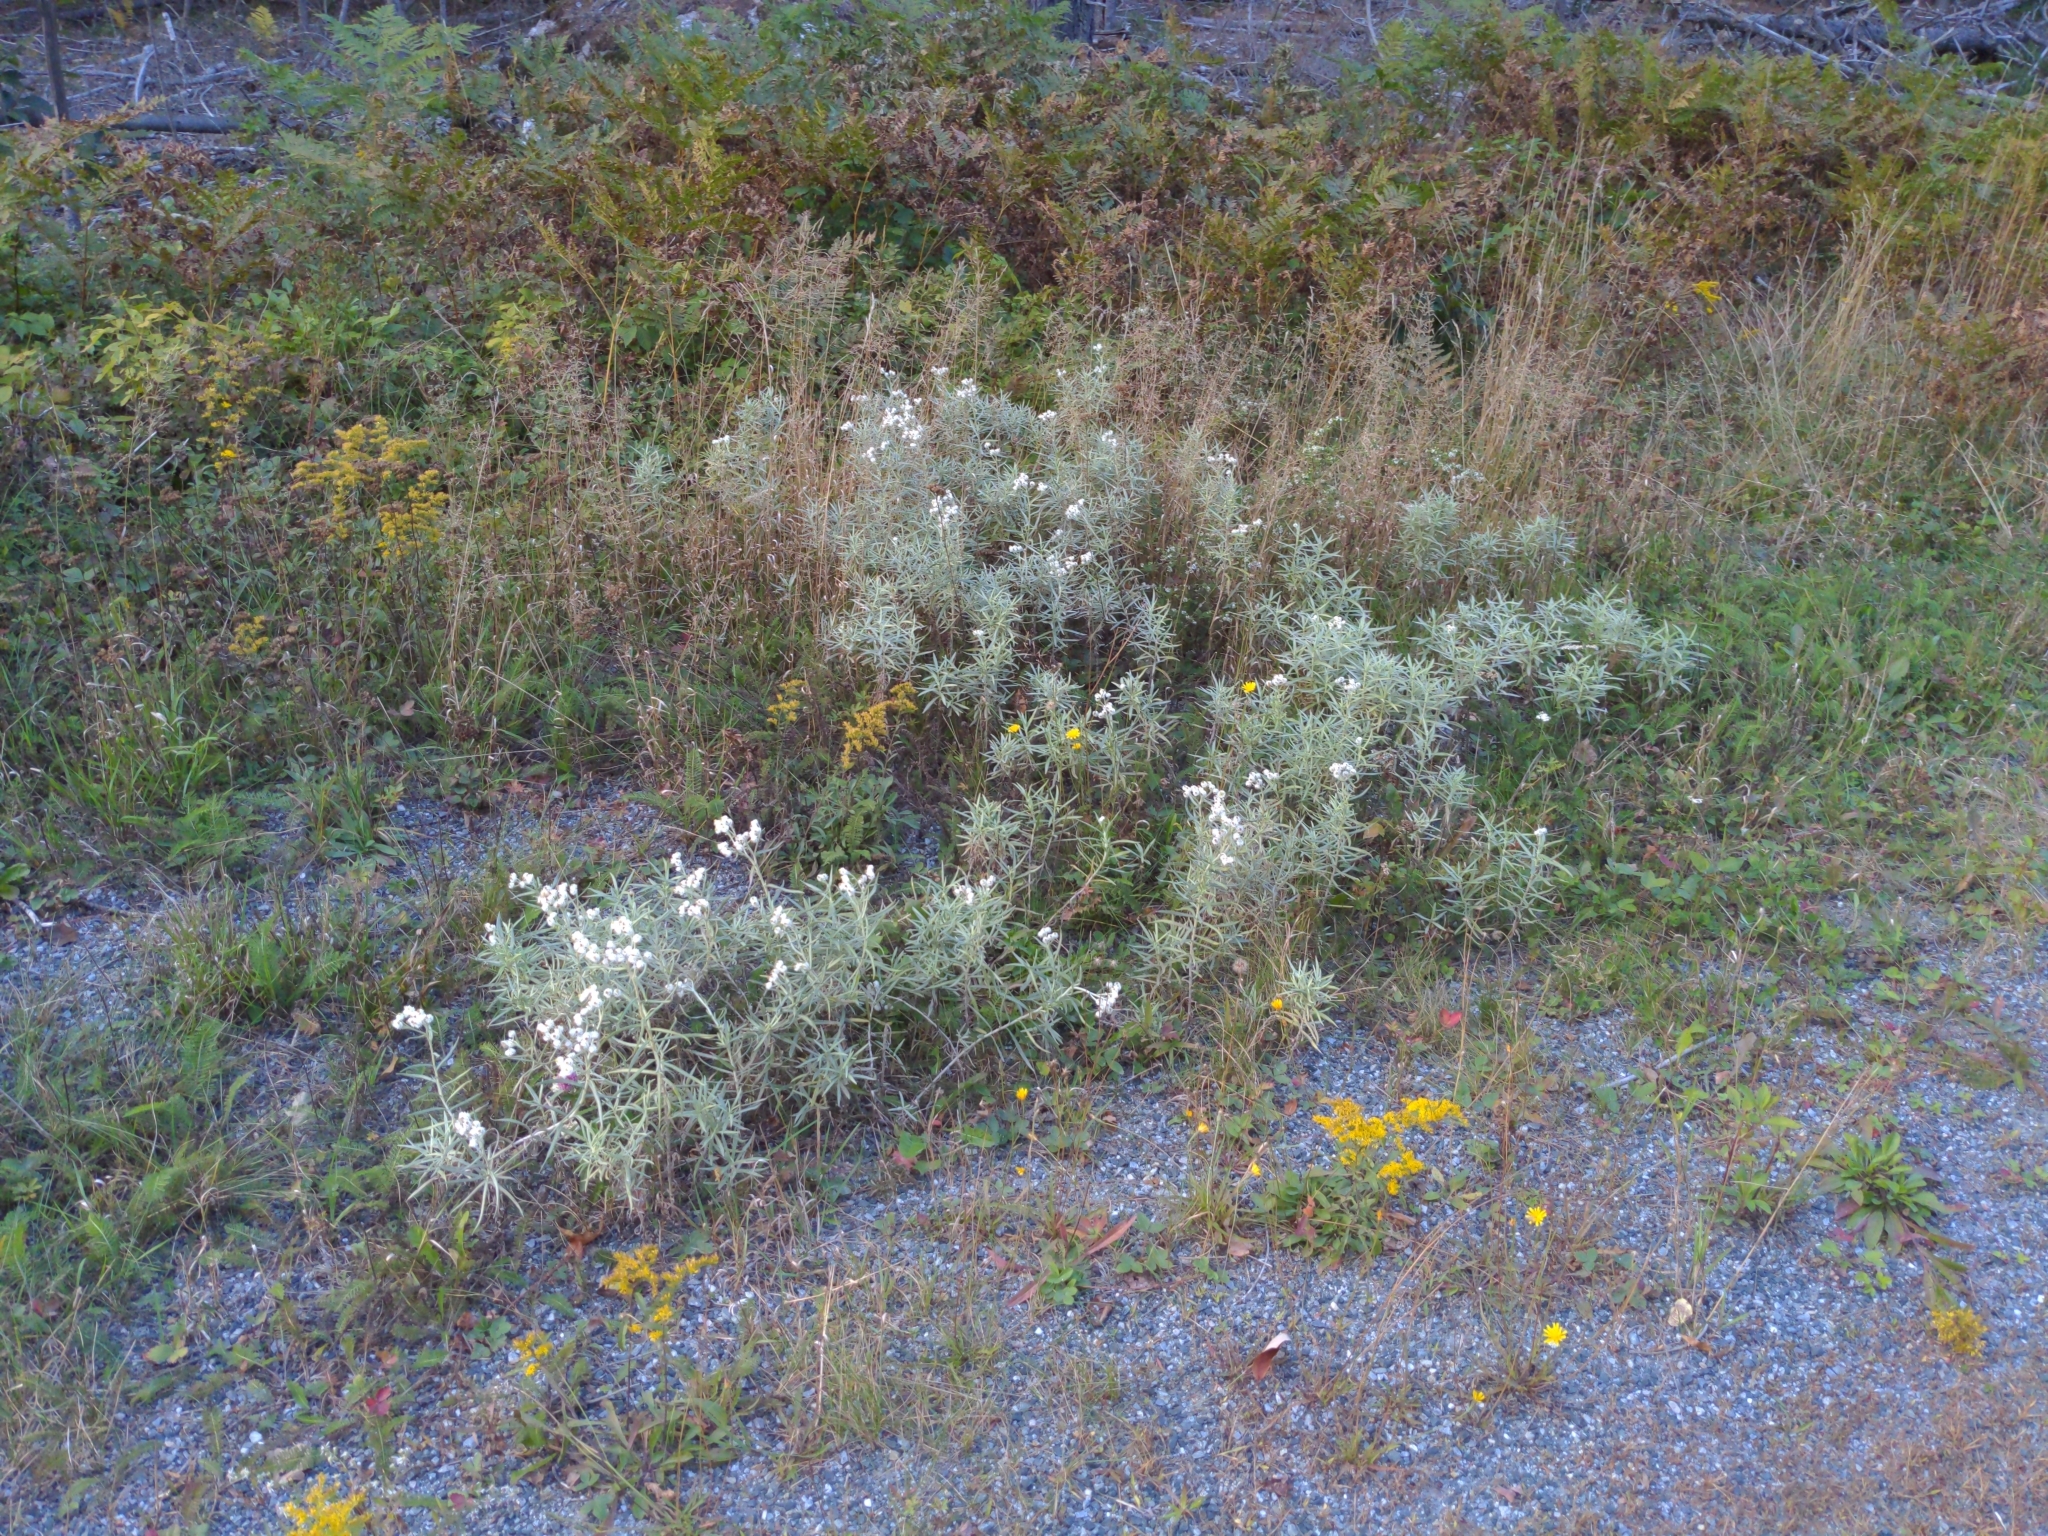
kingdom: Plantae
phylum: Tracheophyta
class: Magnoliopsida
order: Asterales
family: Asteraceae
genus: Anaphalis
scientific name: Anaphalis margaritacea
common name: Pearly everlasting
